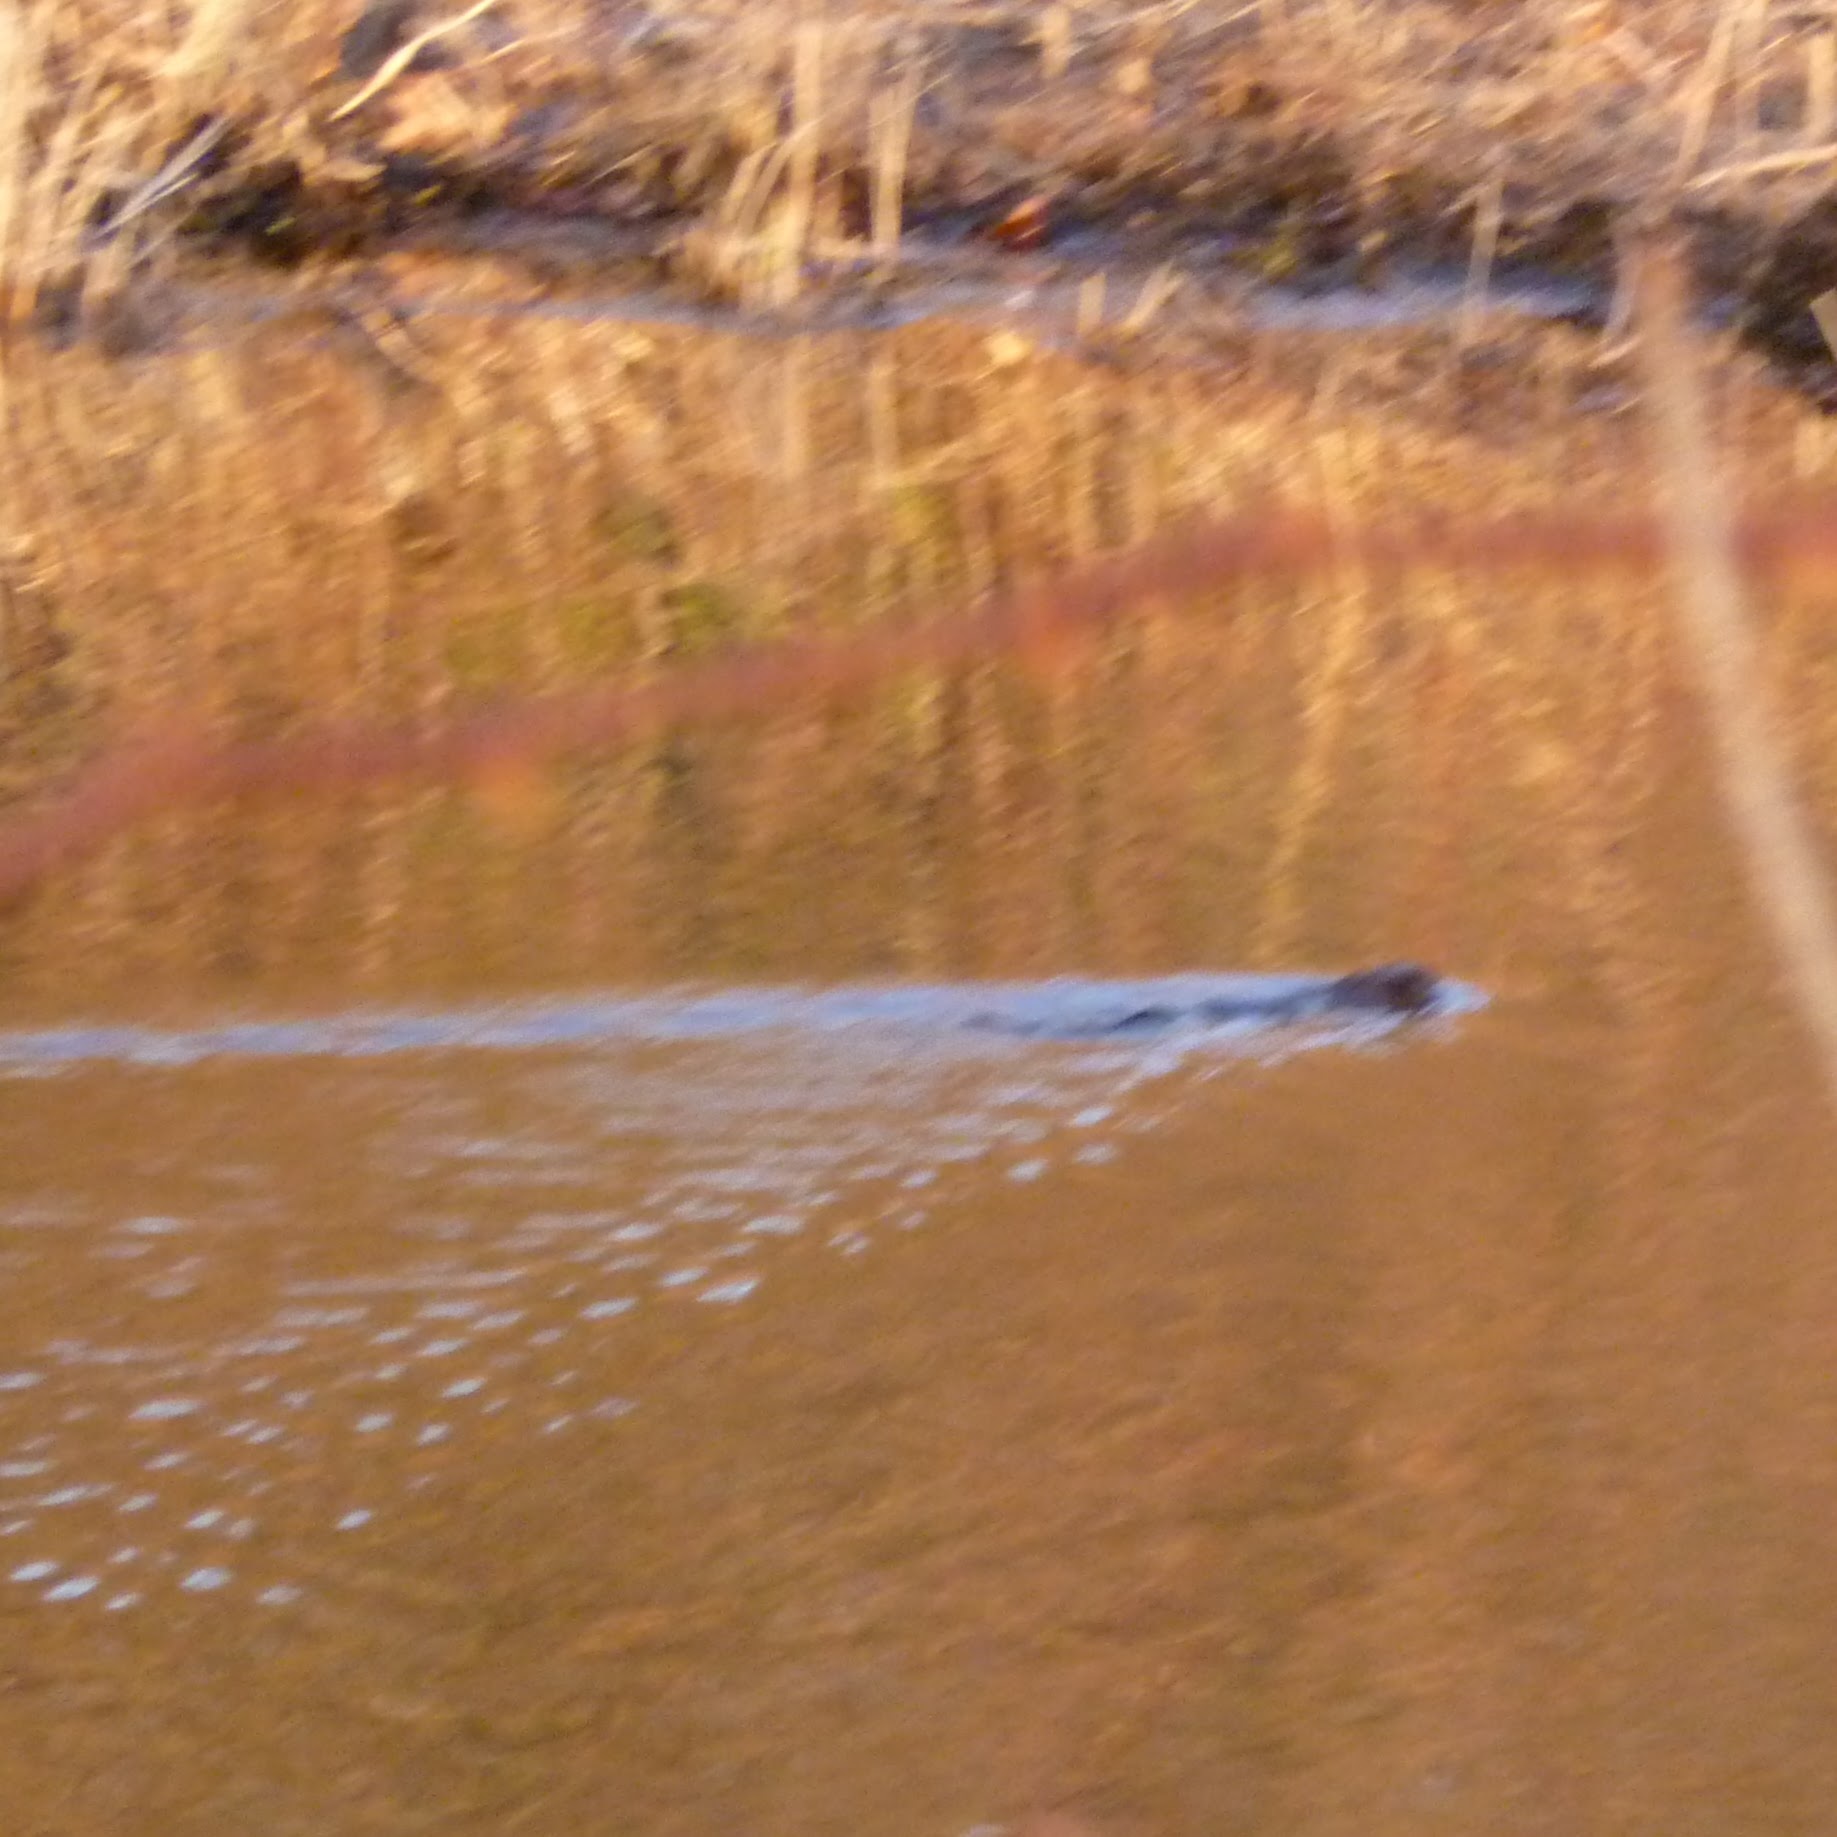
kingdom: Animalia
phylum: Chordata
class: Mammalia
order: Rodentia
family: Cricetidae
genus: Ondatra
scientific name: Ondatra zibethicus
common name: Muskrat
